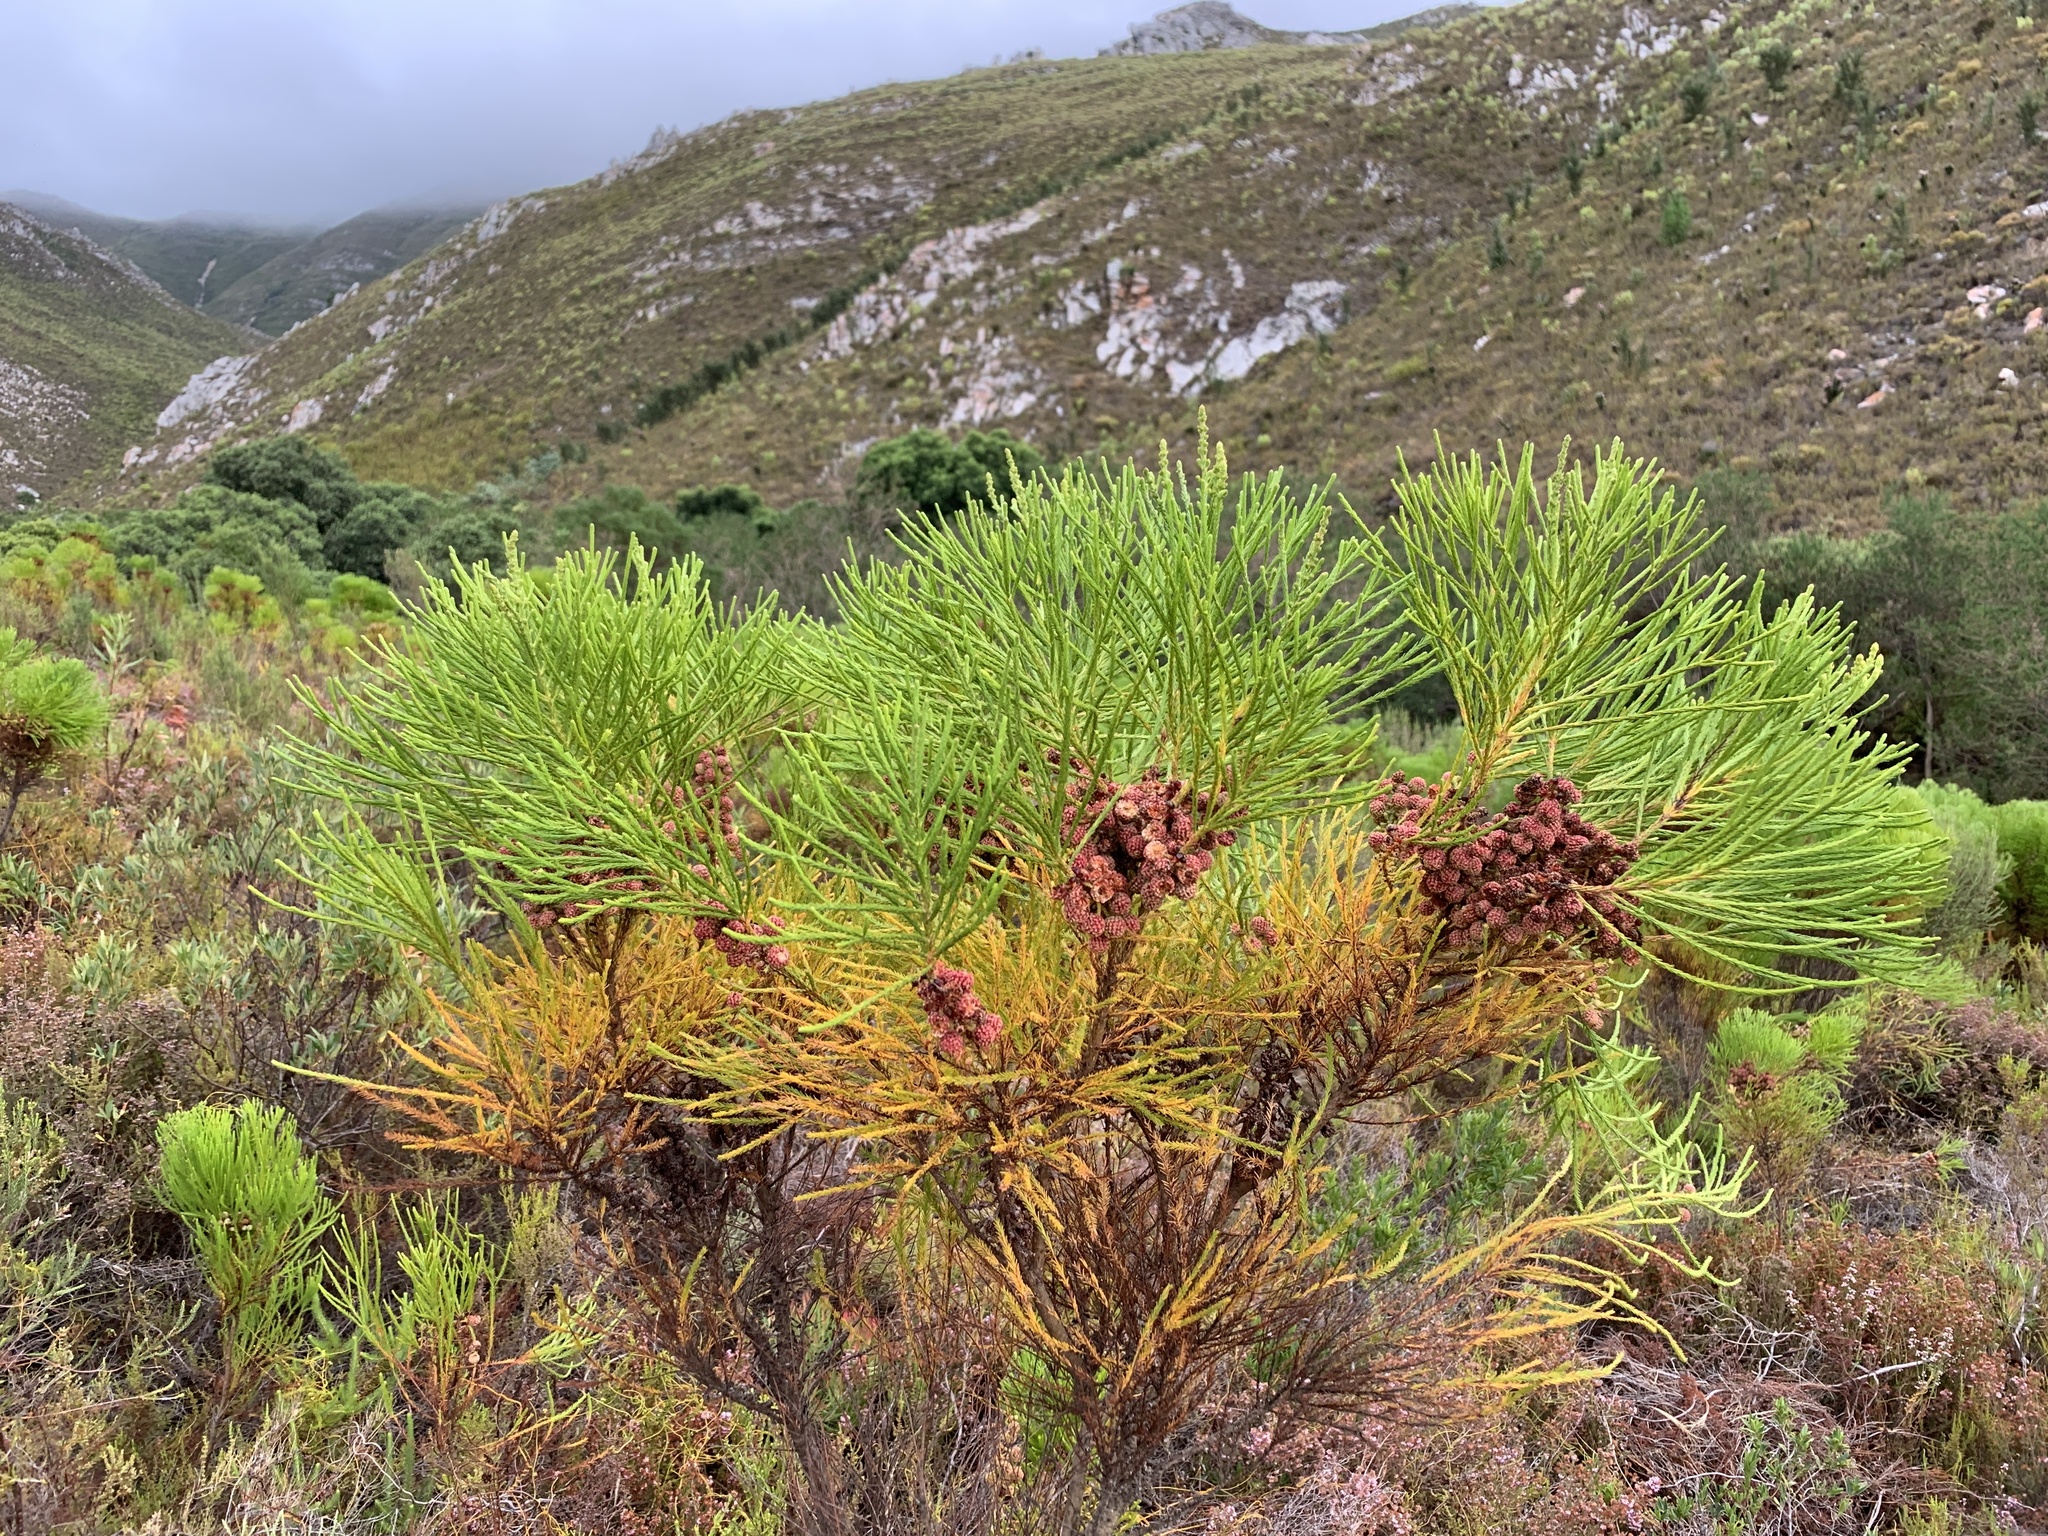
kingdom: Plantae
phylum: Tracheophyta
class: Magnoliopsida
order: Bruniales
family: Bruniaceae
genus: Berzelia
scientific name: Berzelia lanuginosa
